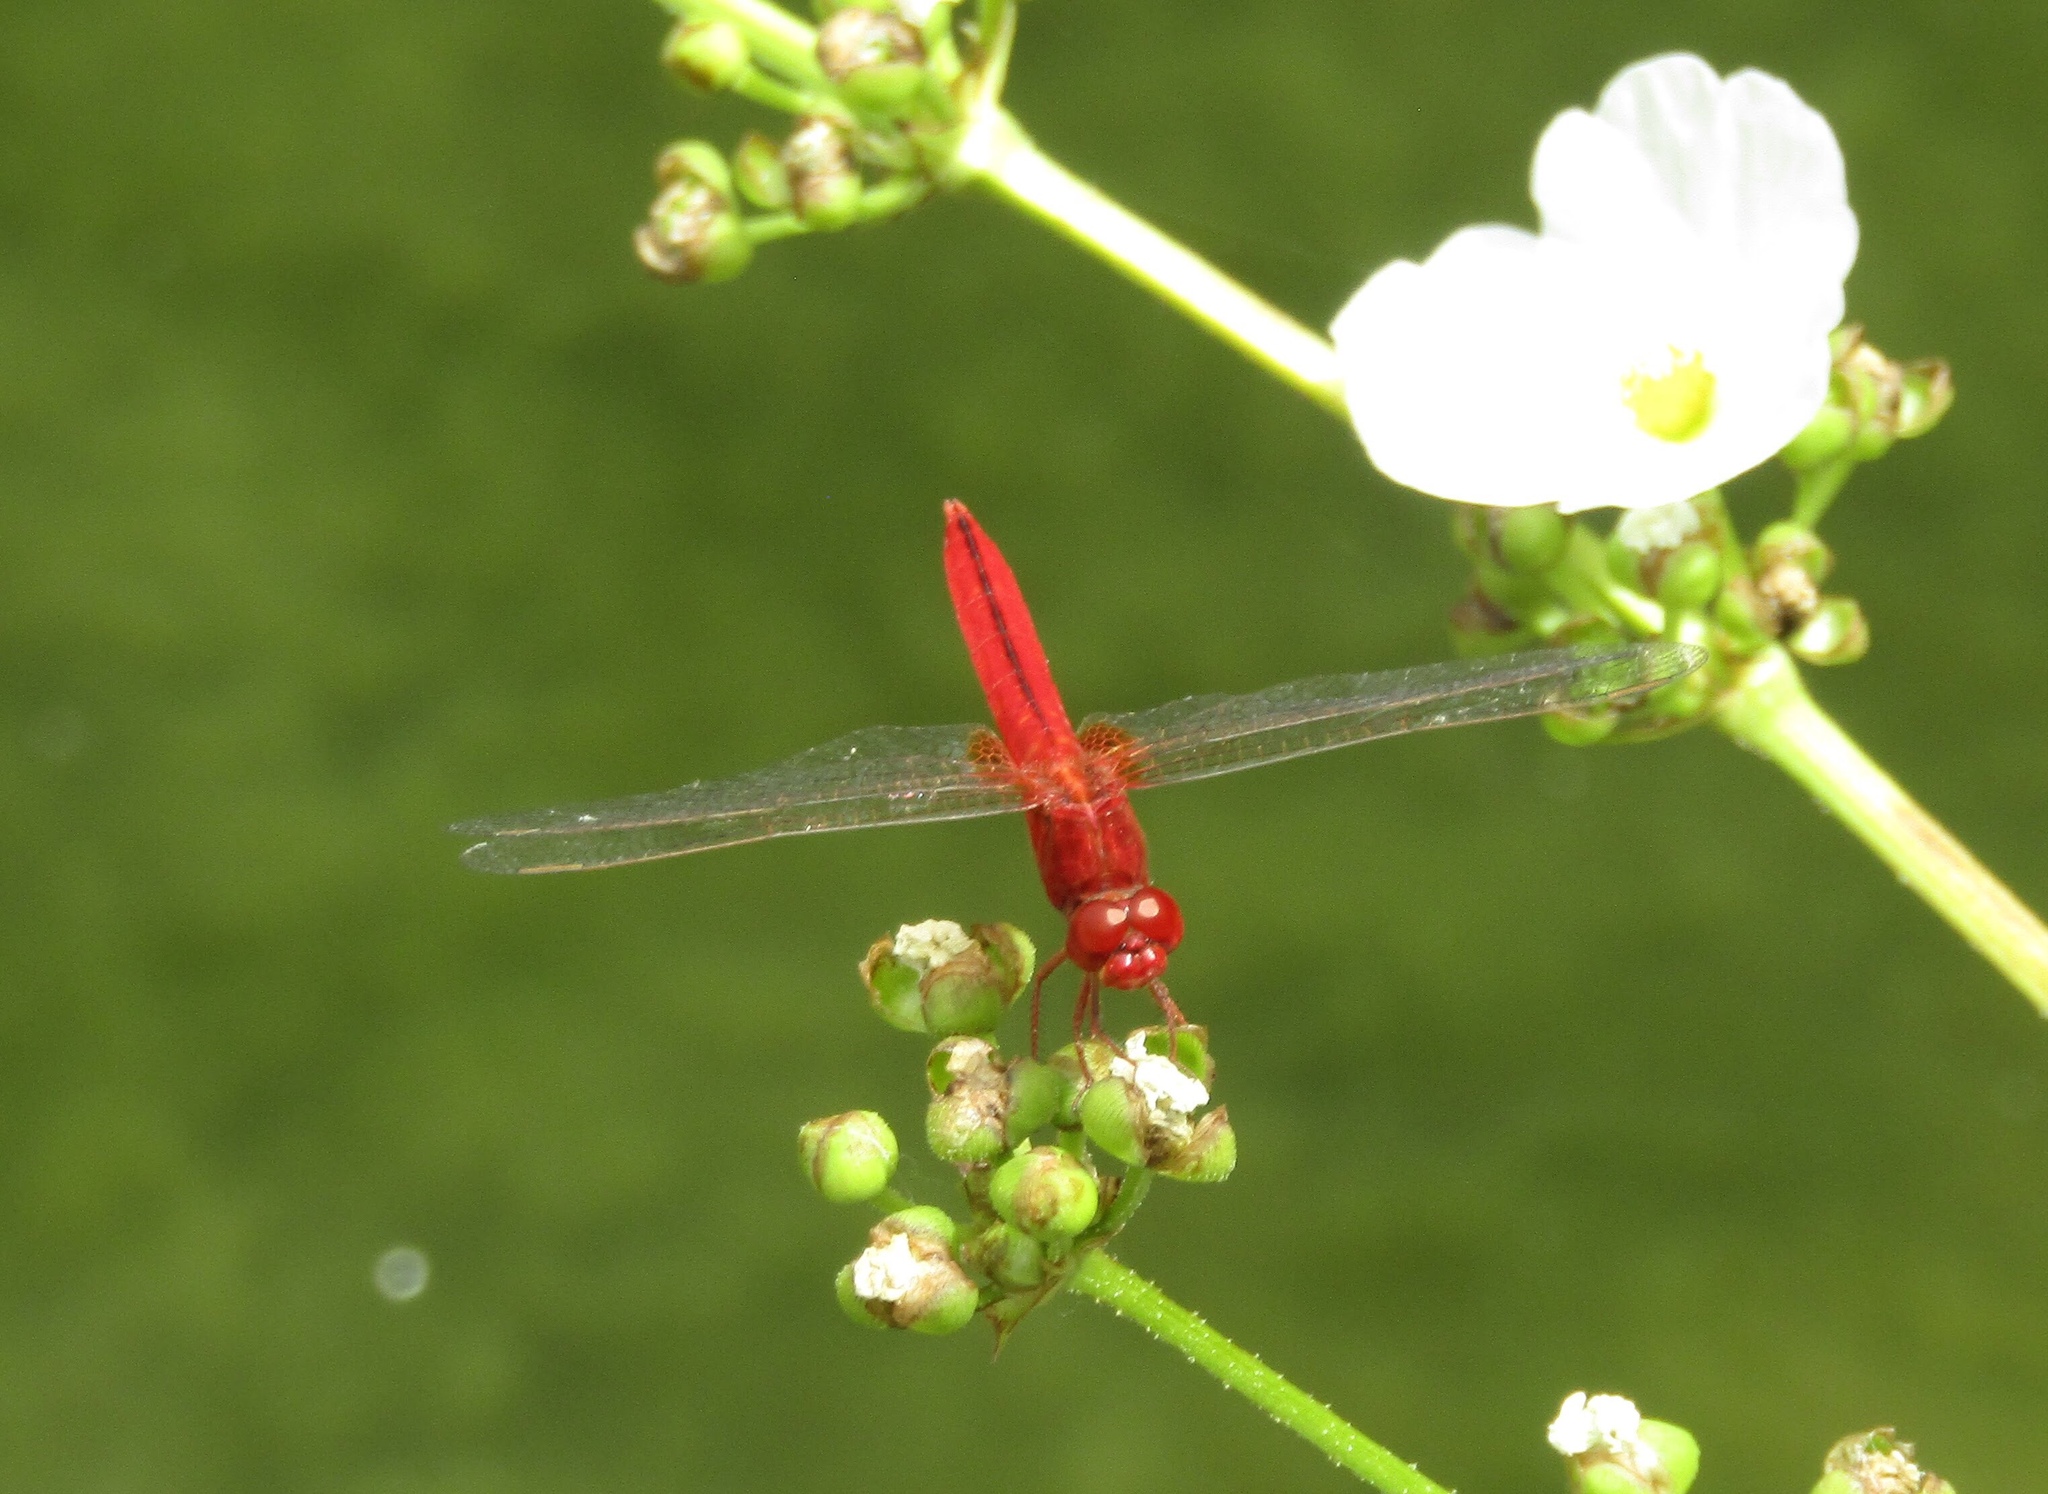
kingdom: Animalia
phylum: Arthropoda
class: Insecta
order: Odonata
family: Libellulidae
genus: Crocothemis
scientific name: Crocothemis servilia
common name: Scarlet skimmer
